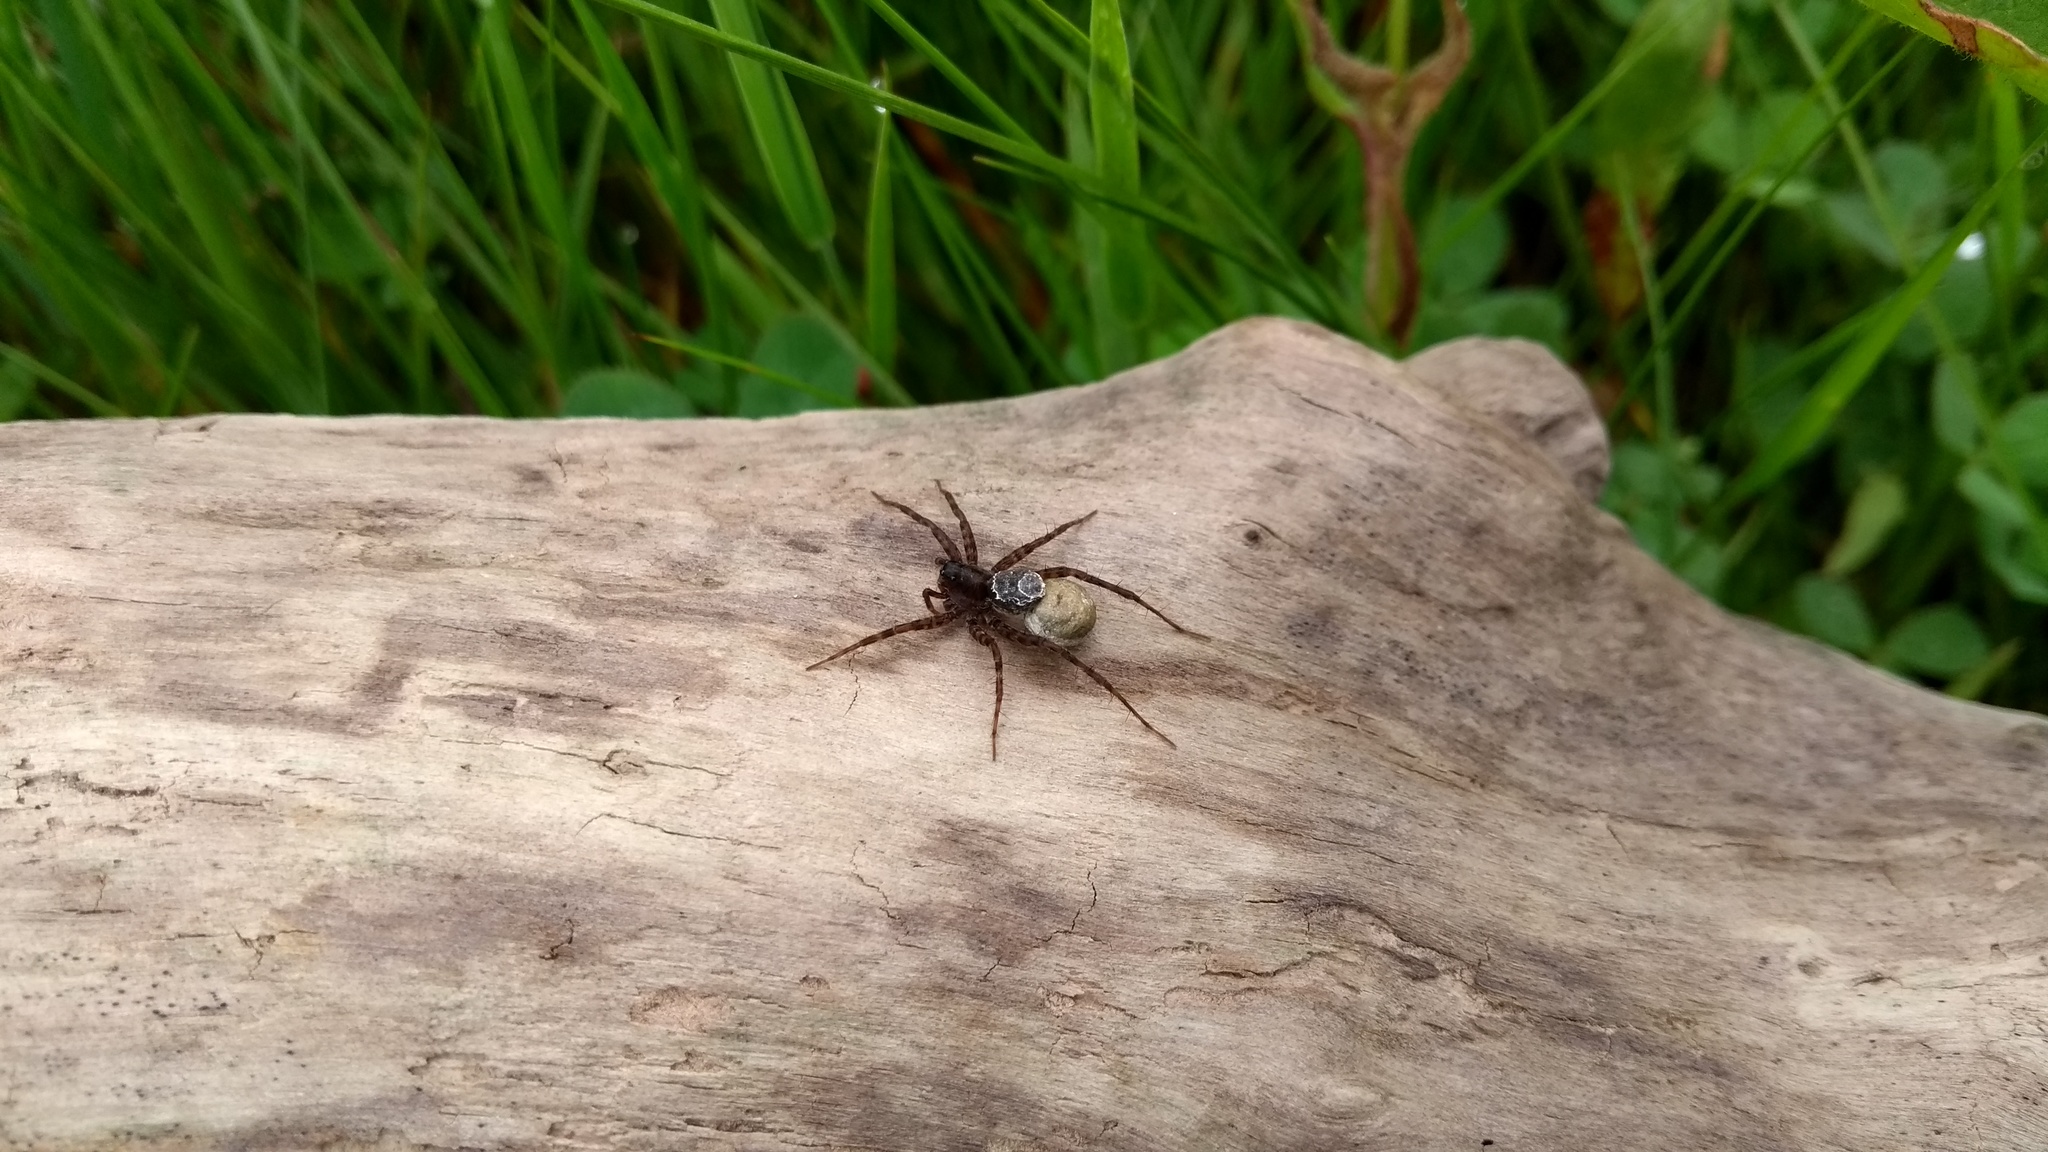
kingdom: Animalia
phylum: Arthropoda
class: Arachnida
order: Araneae
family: Lycosidae
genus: Pardosa
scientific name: Pardosa
